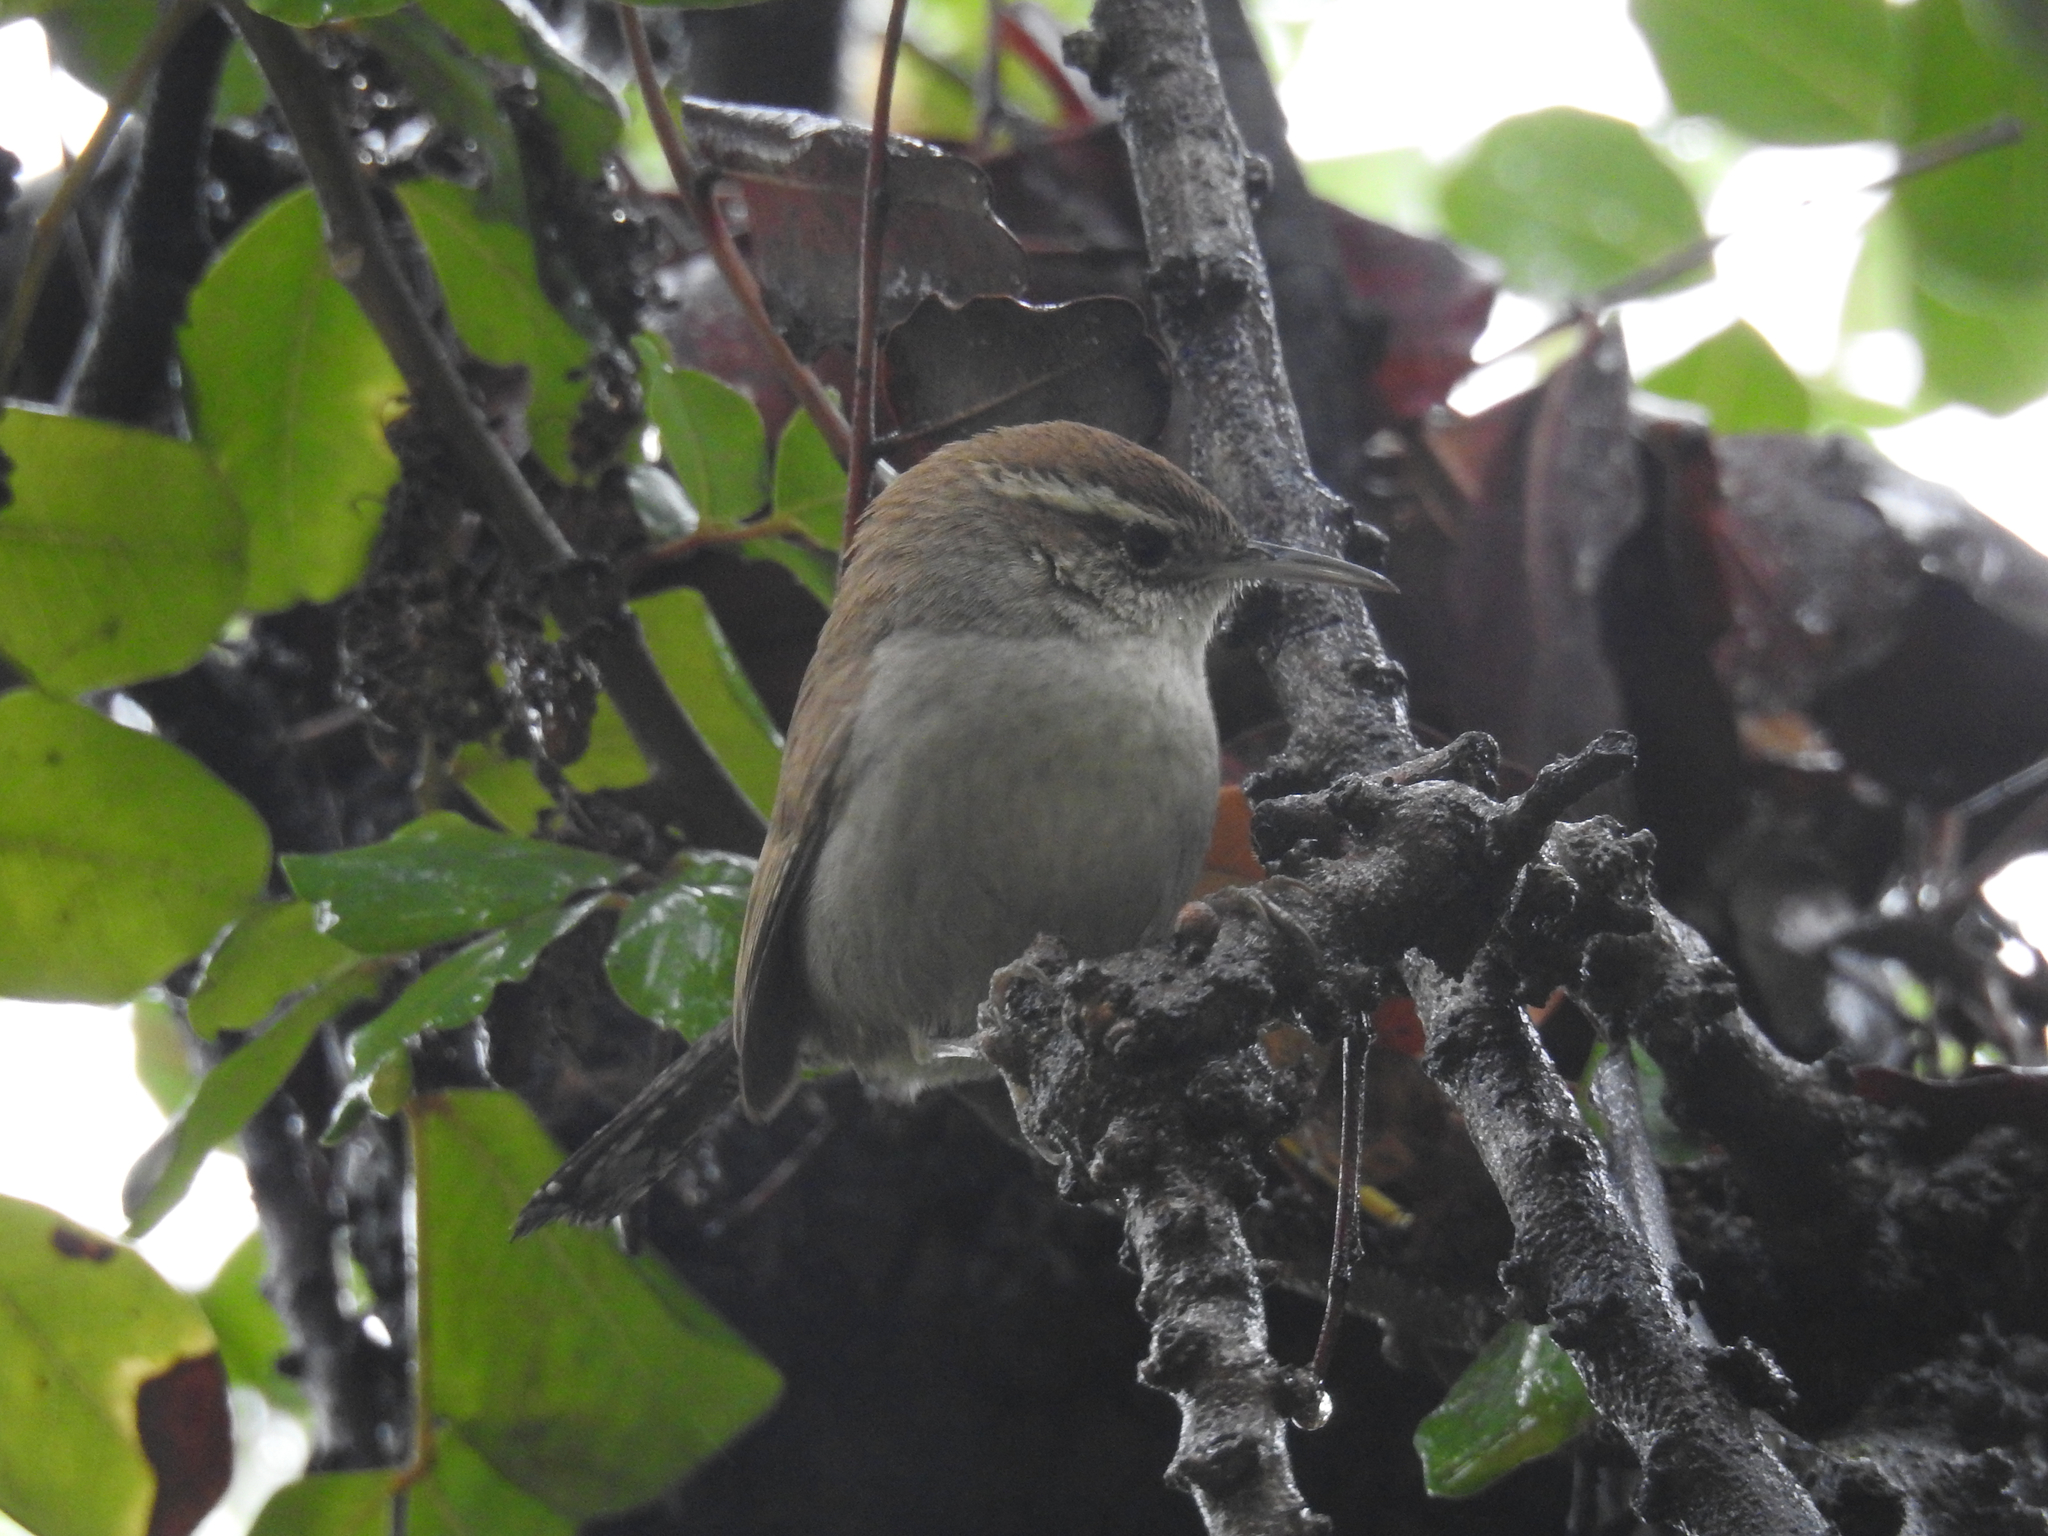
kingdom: Animalia
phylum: Chordata
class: Aves
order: Passeriformes
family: Troglodytidae
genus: Thryomanes
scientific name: Thryomanes bewickii
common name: Bewick's wren
